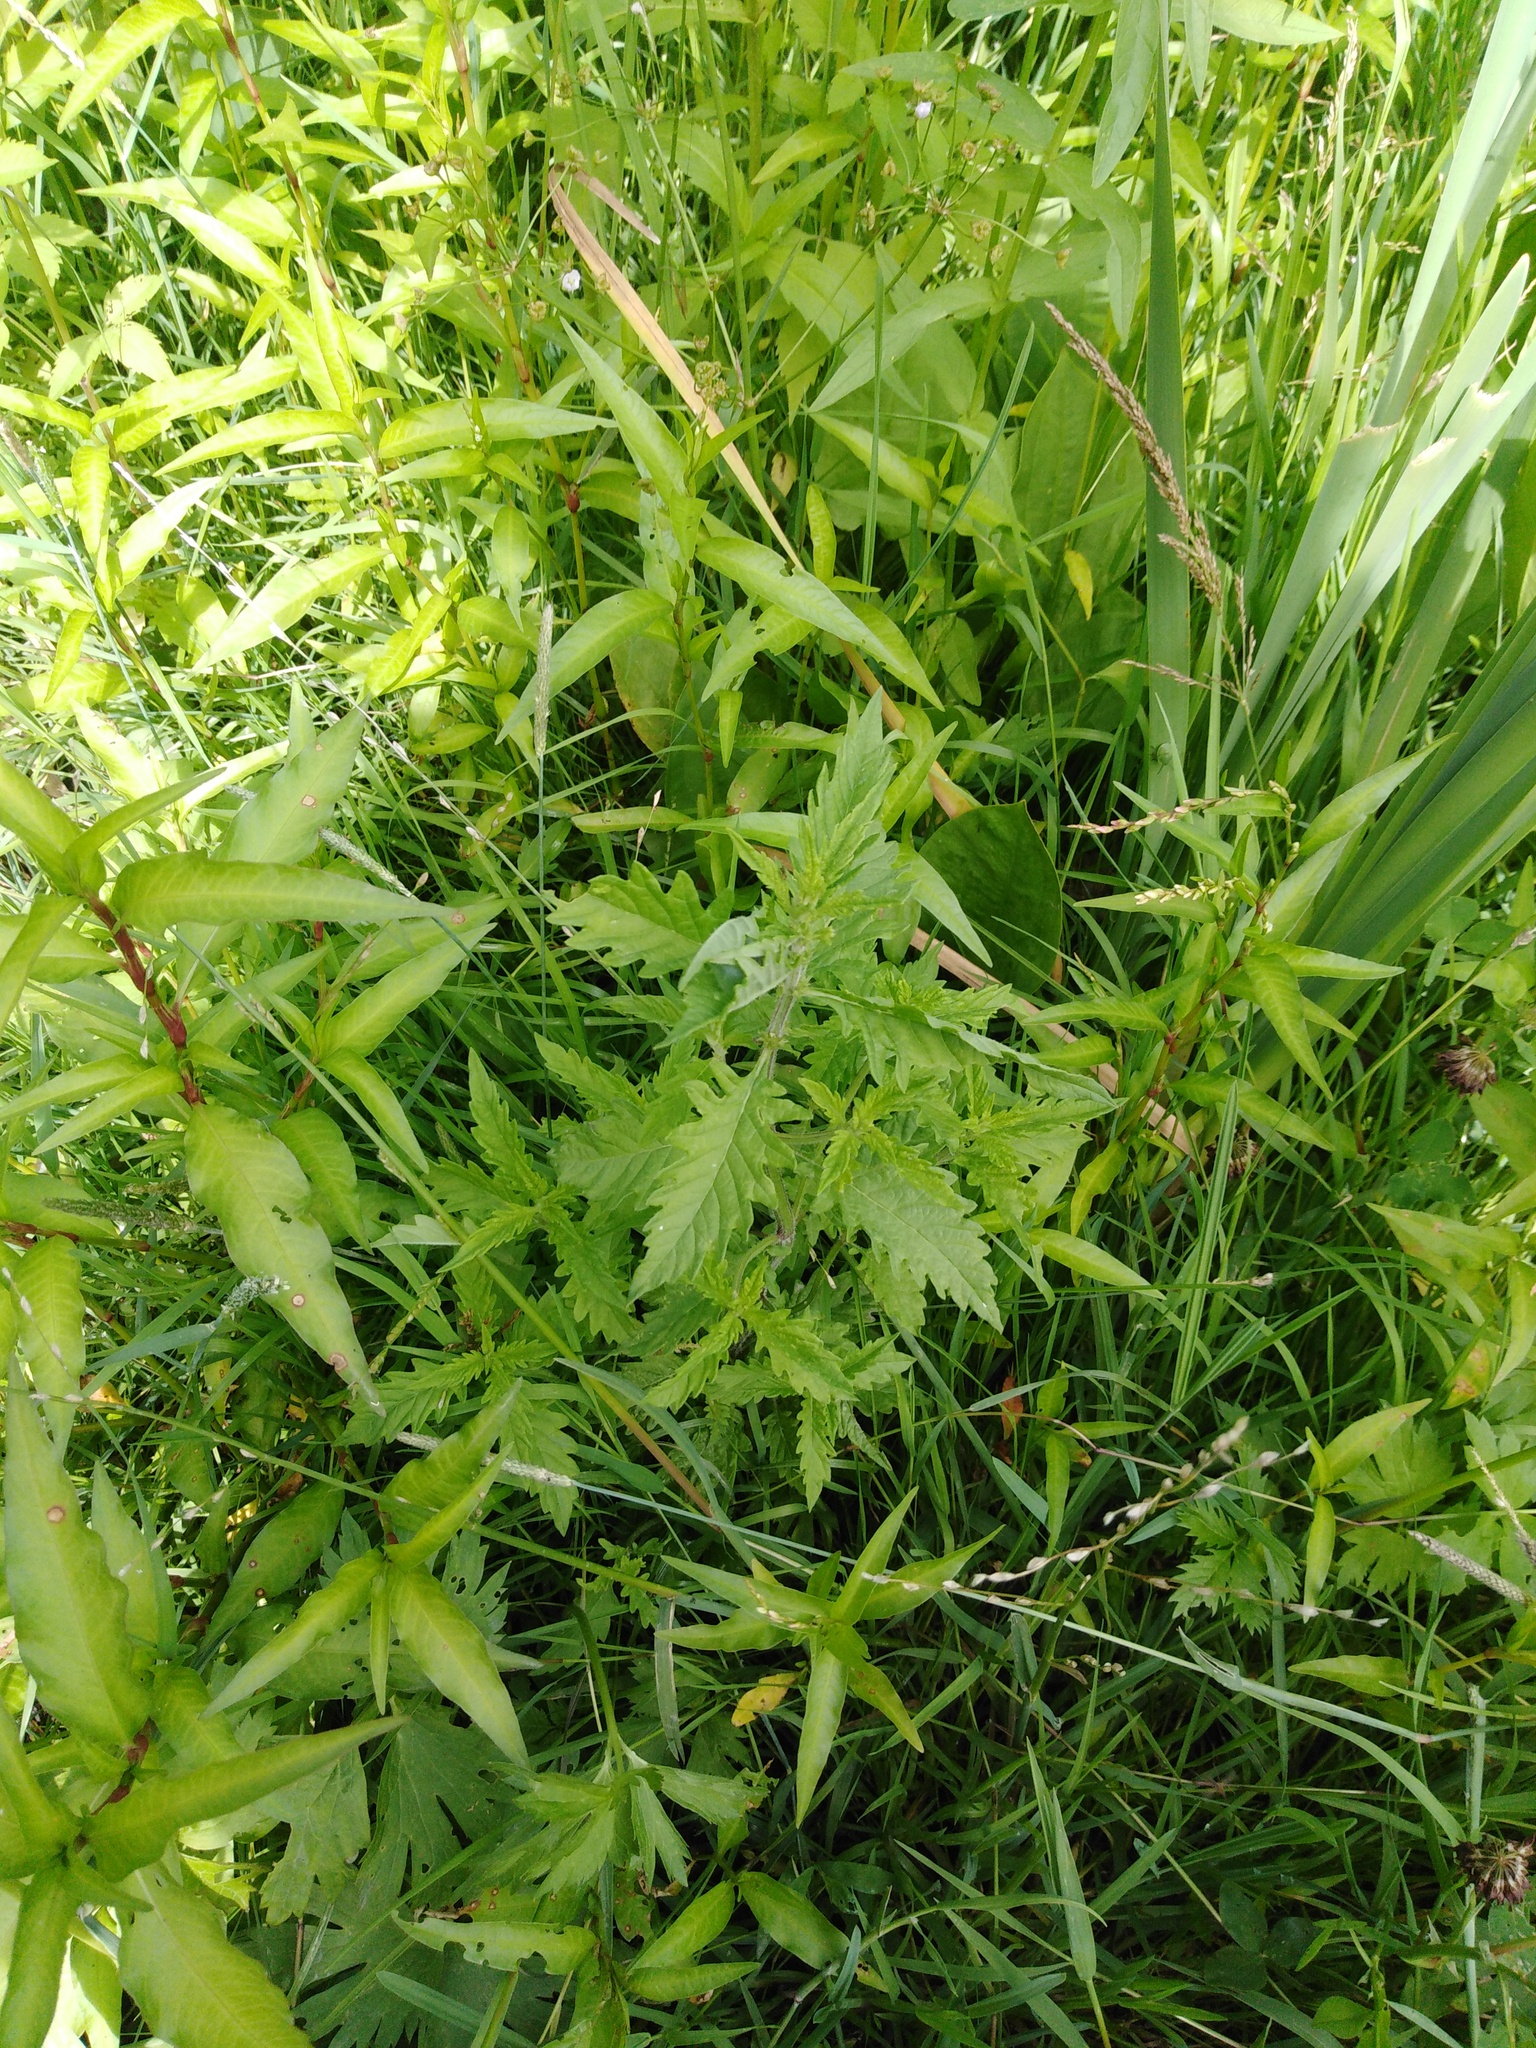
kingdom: Plantae
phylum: Tracheophyta
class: Magnoliopsida
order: Lamiales
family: Lamiaceae
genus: Lycopus
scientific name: Lycopus europaeus
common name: European bugleweed
